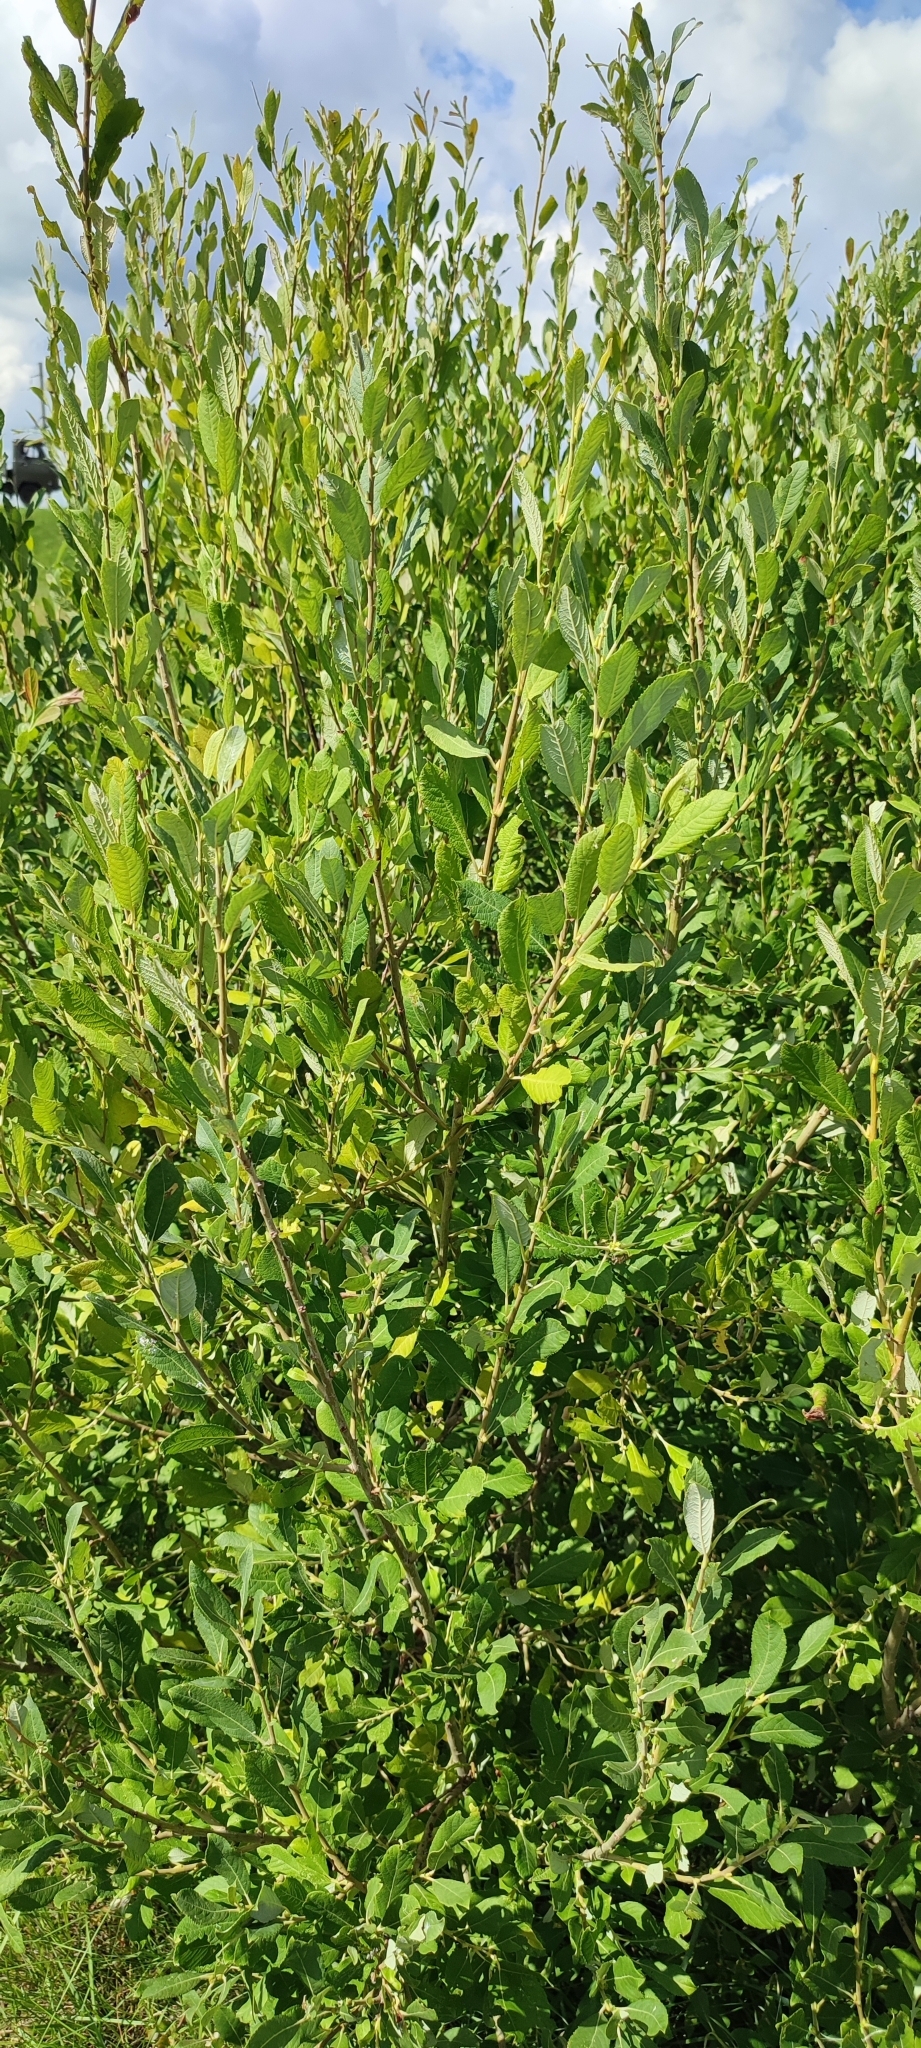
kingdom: Plantae
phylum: Tracheophyta
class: Magnoliopsida
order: Malpighiales
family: Salicaceae
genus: Salix
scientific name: Salix cinerea
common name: Common sallow
